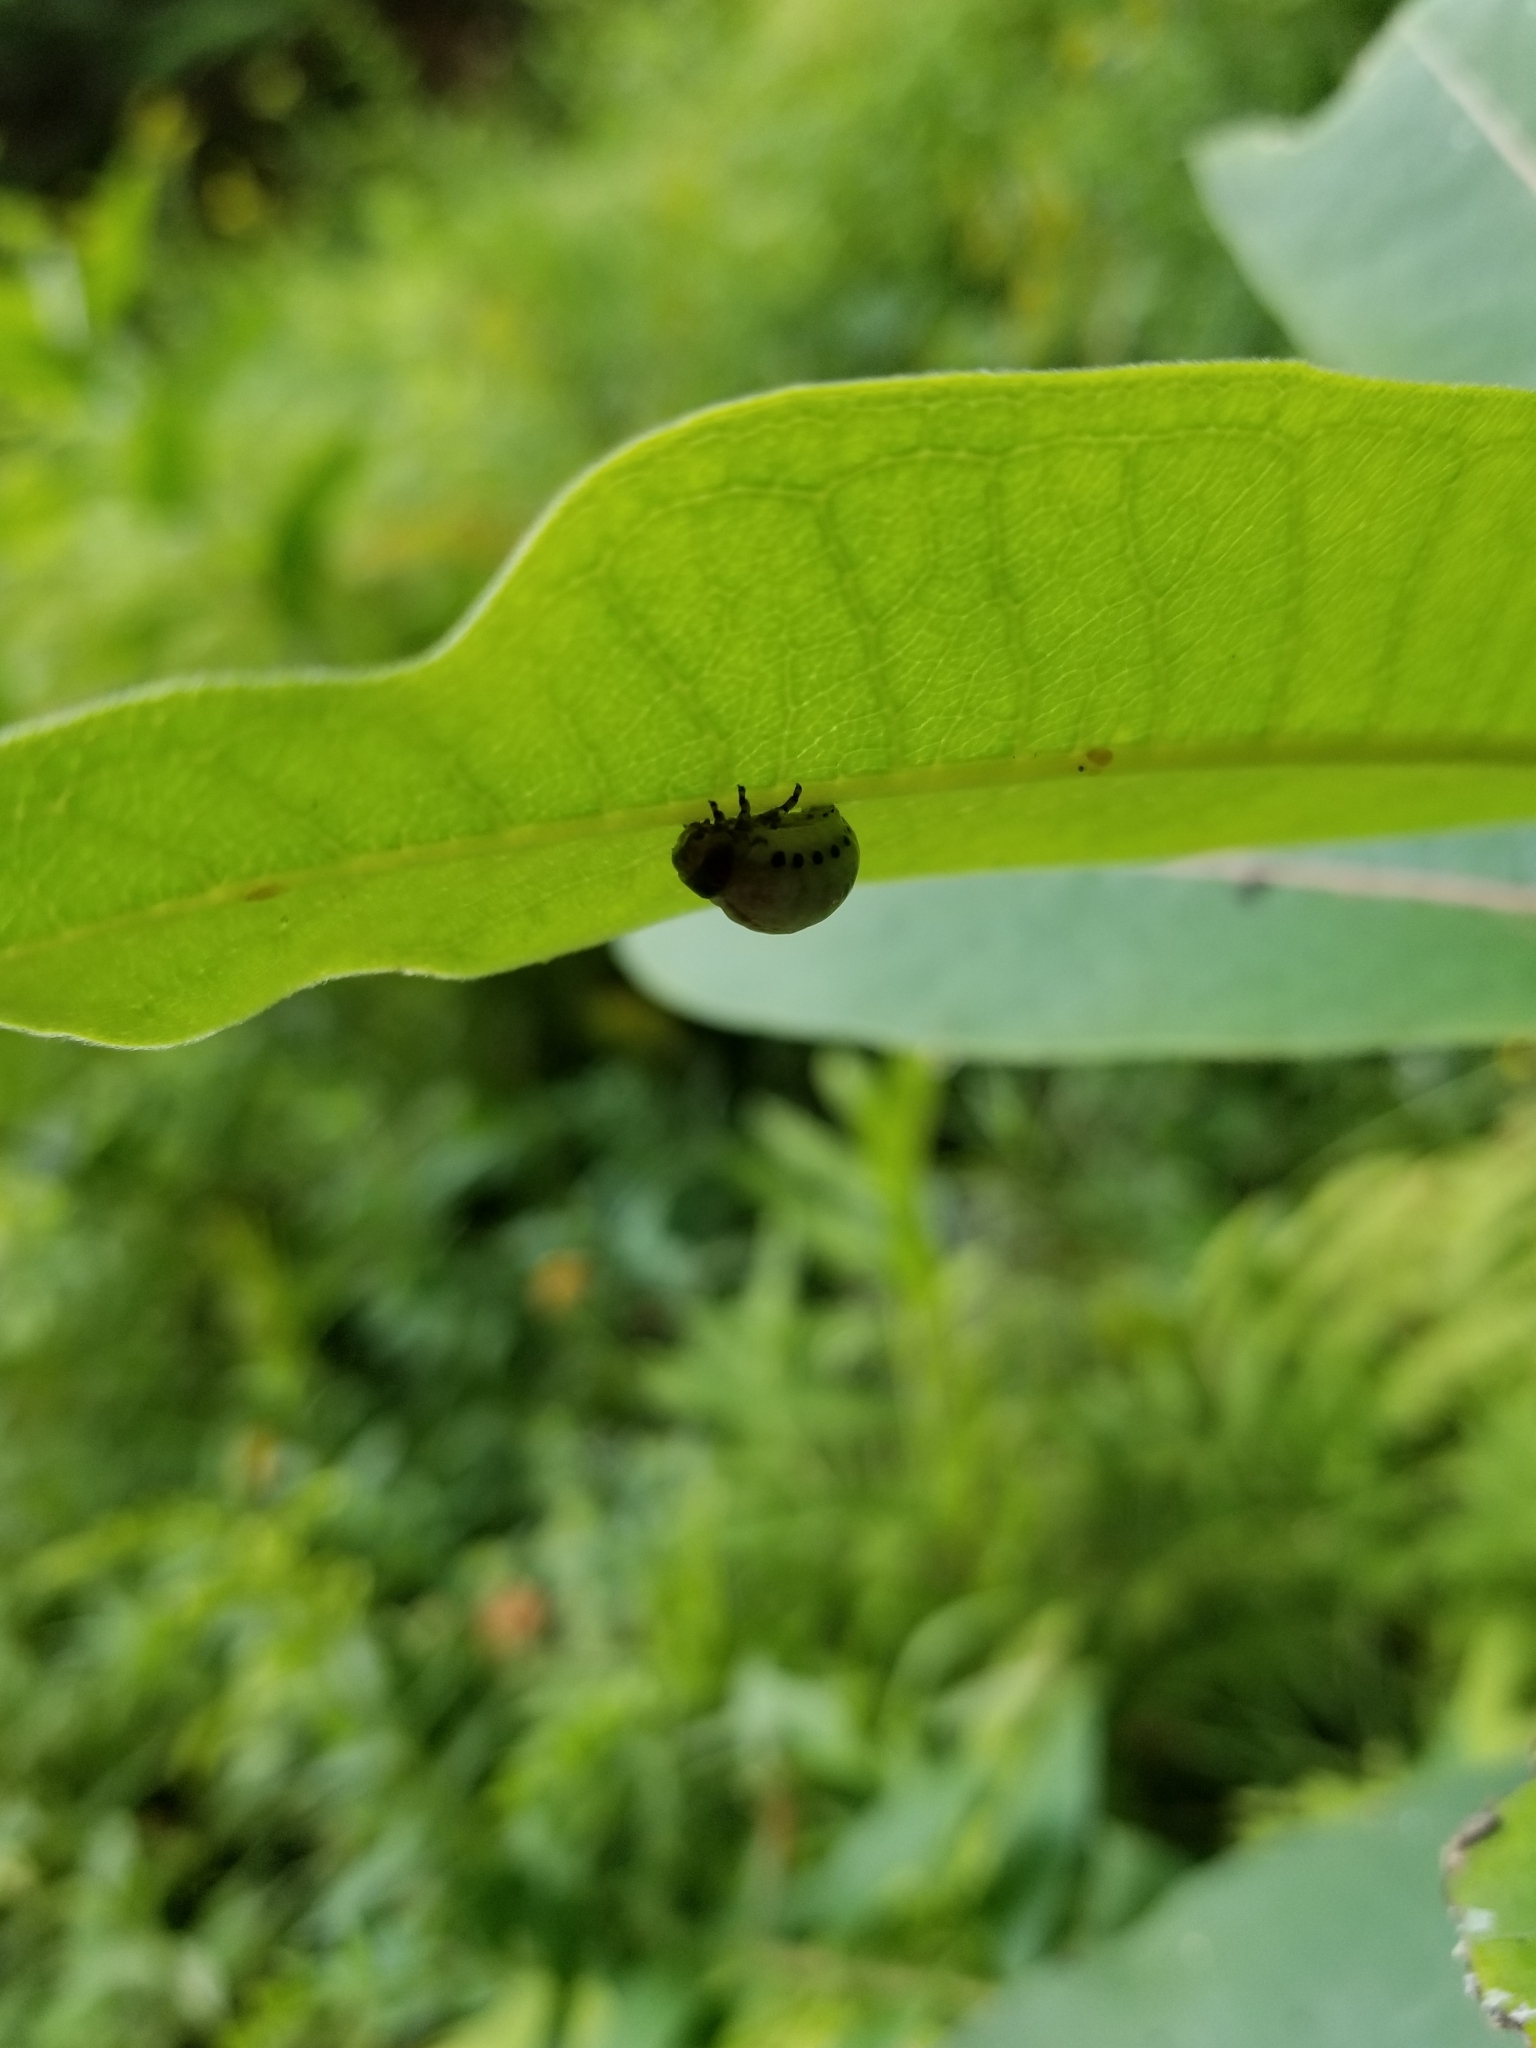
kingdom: Animalia
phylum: Arthropoda
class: Insecta
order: Coleoptera
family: Chrysomelidae
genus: Labidomera
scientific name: Labidomera clivicollis
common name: Swamp milkweed leaf beetle
